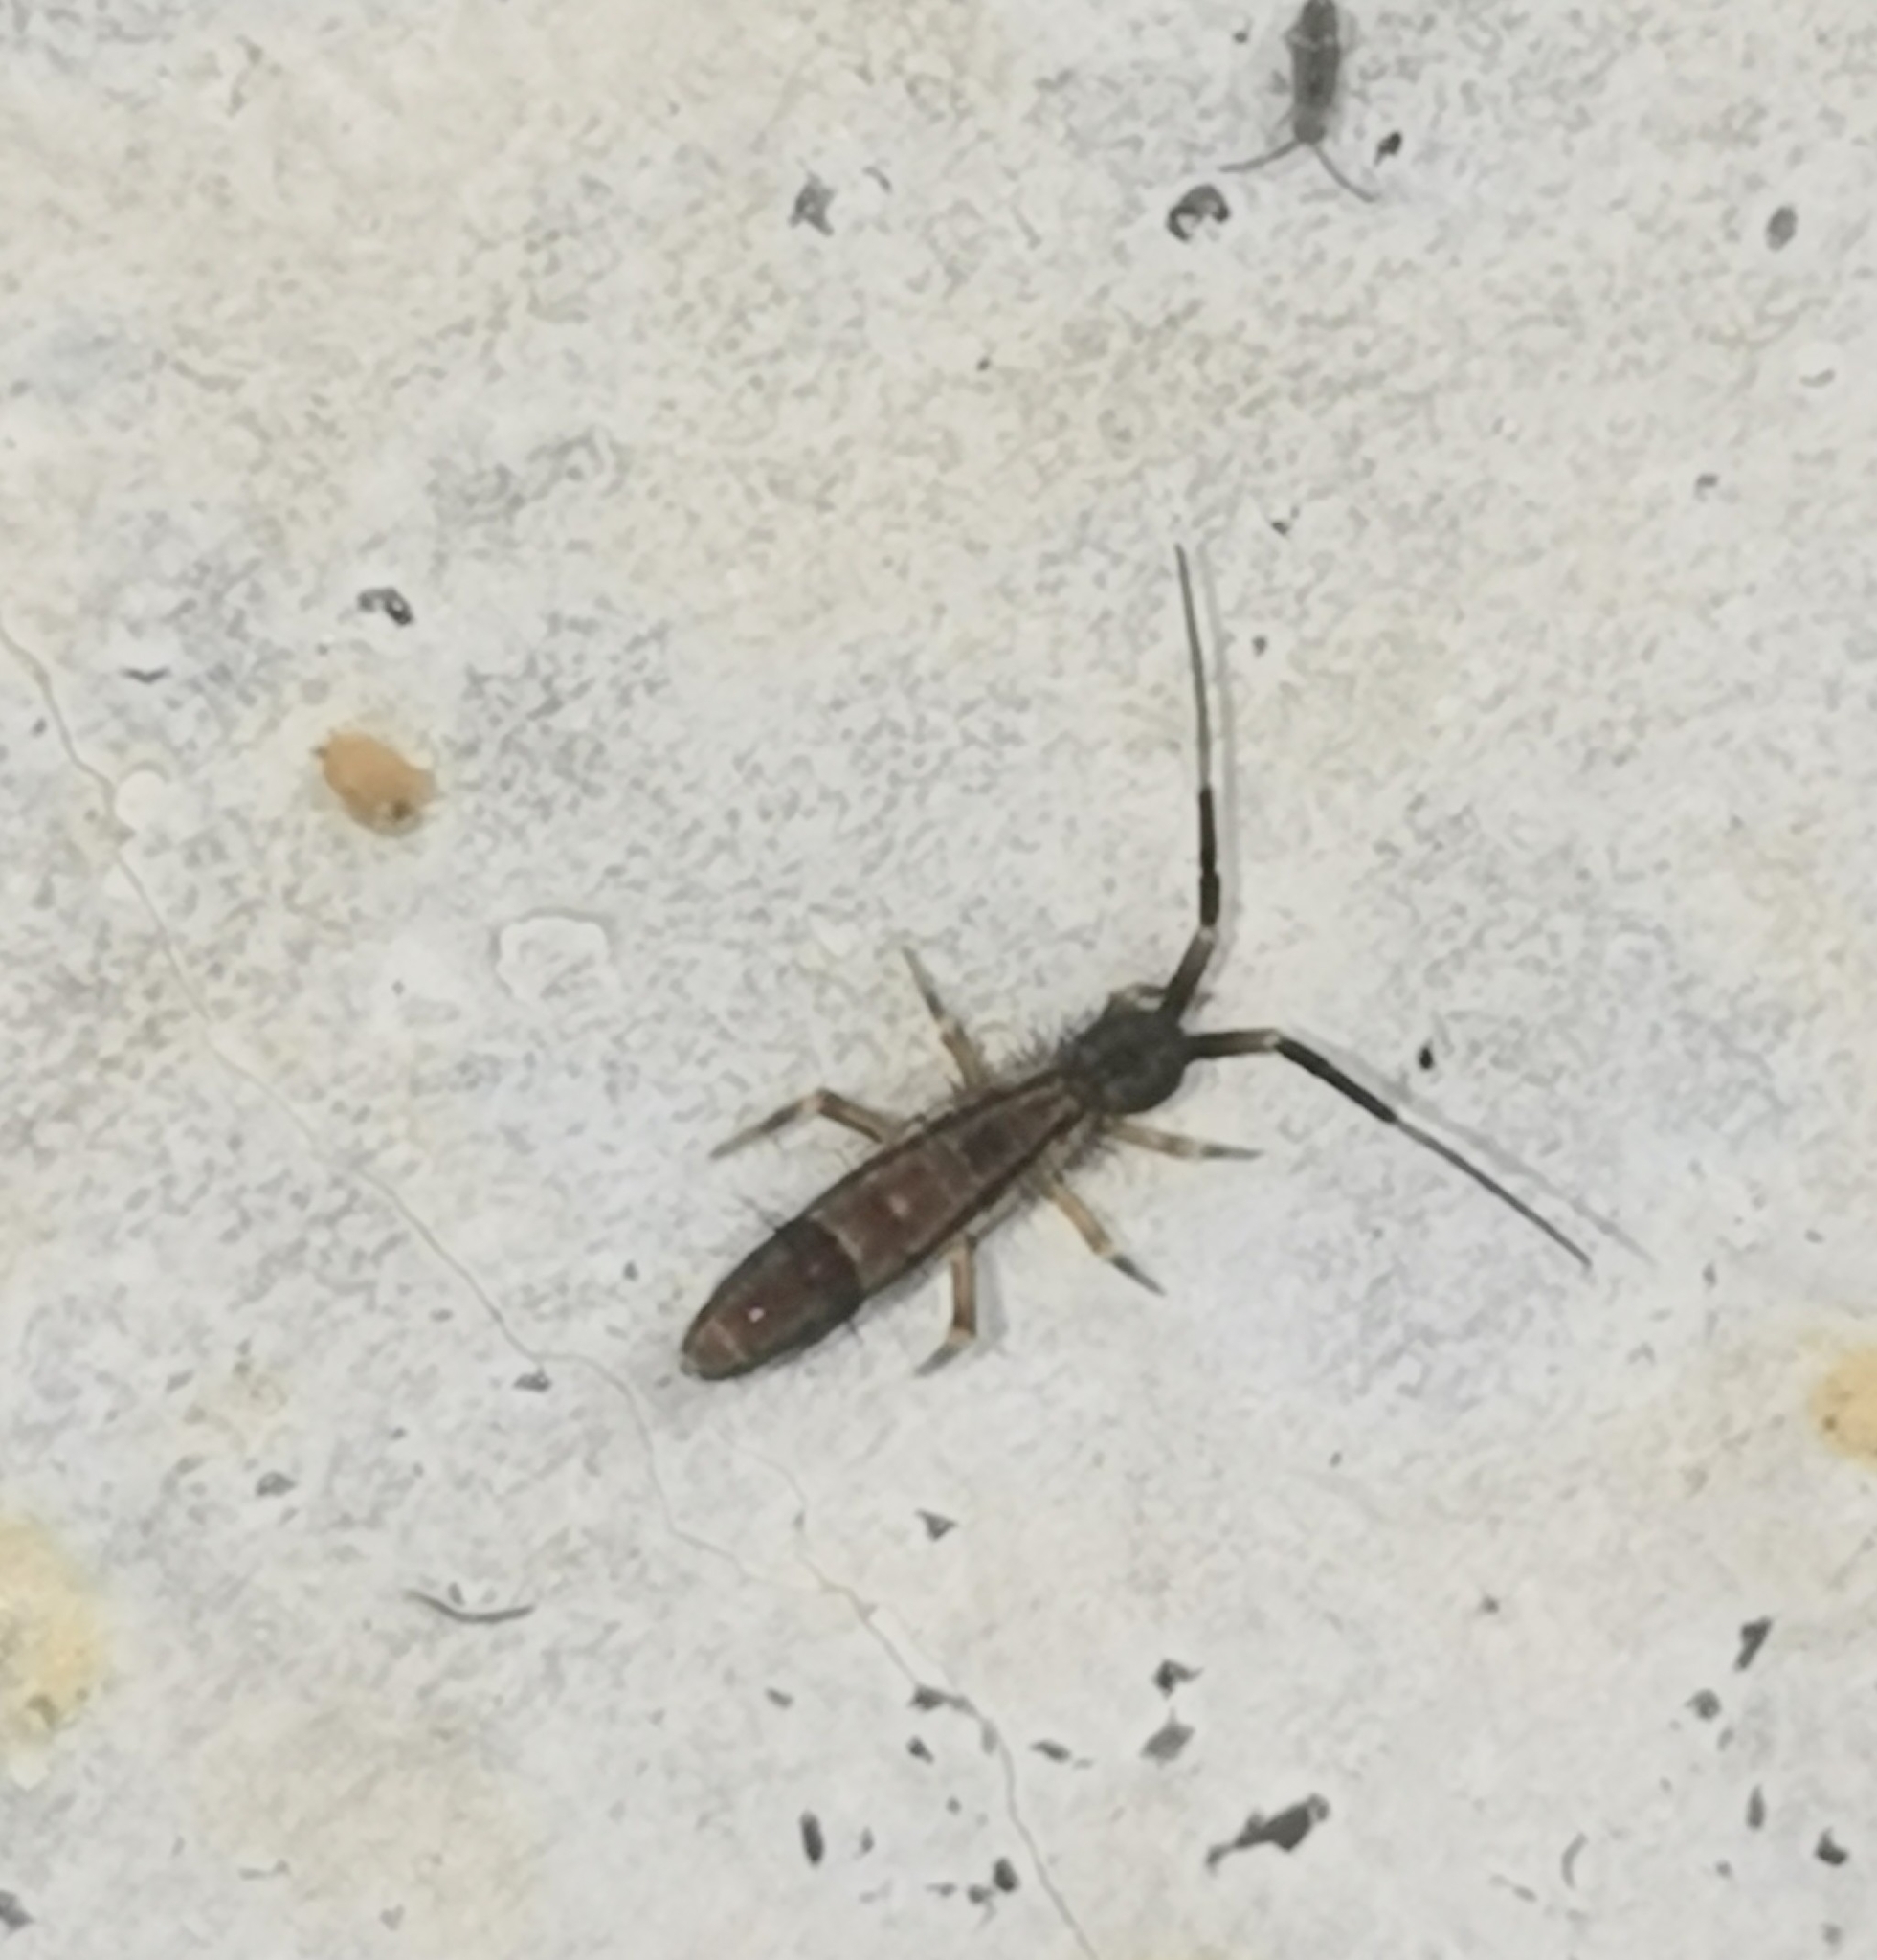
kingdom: Animalia
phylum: Arthropoda
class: Collembola
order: Entomobryomorpha
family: Entomobryidae
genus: Entomobrya
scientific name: Entomobrya nivalis
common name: Cosmopolitan springtail
